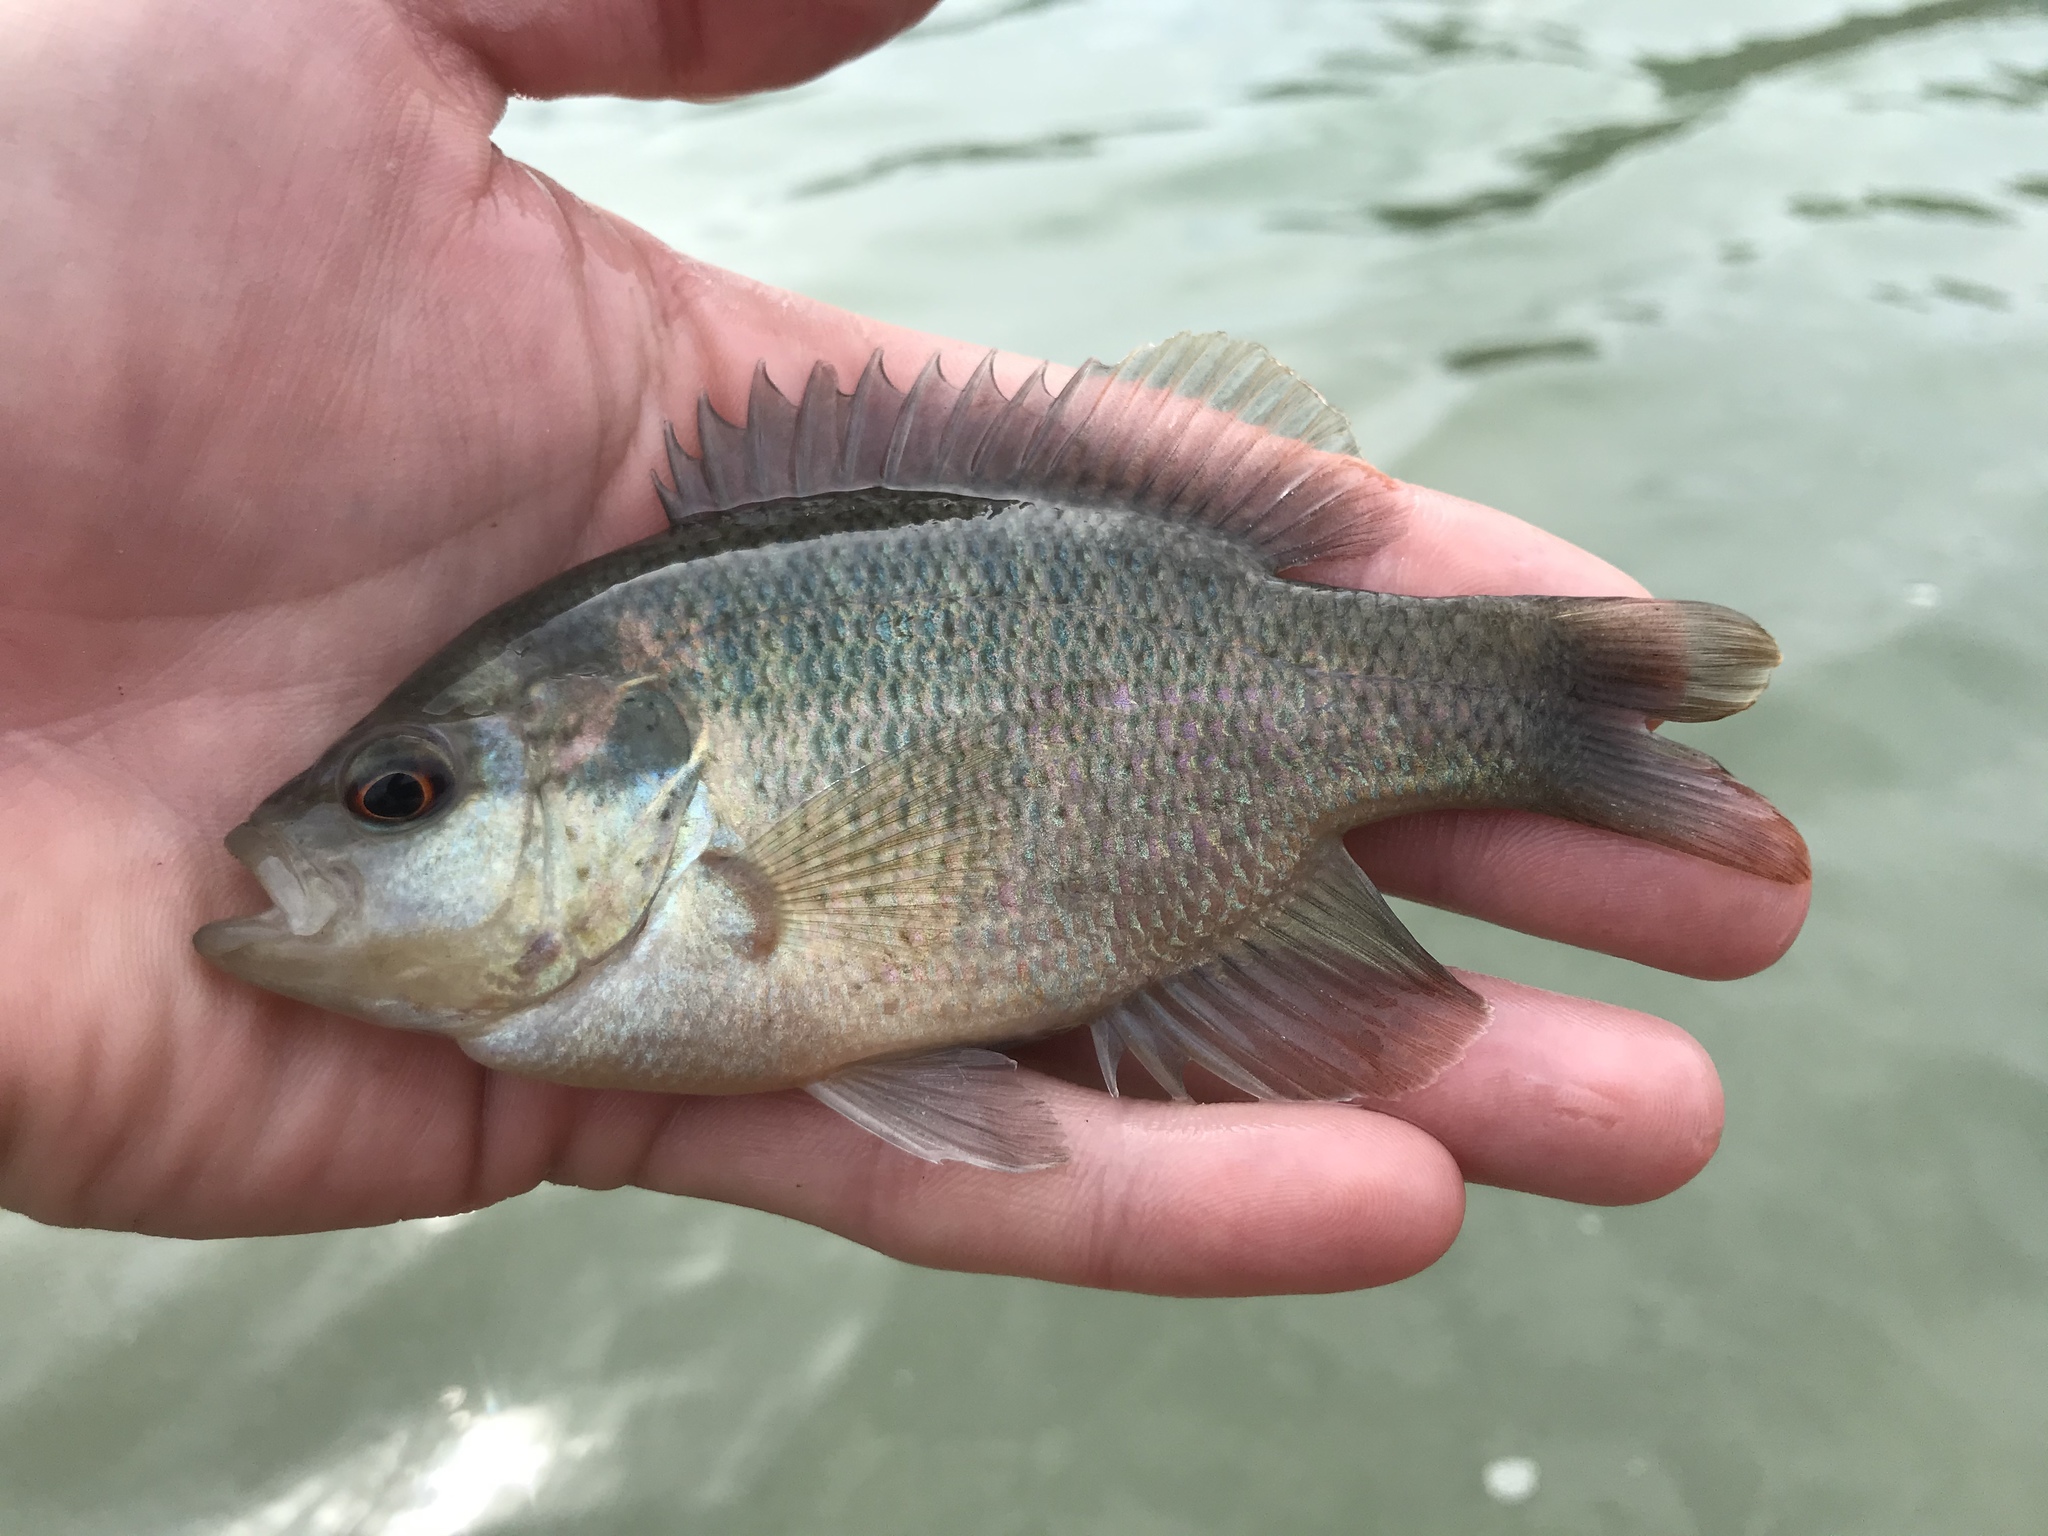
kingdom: Animalia
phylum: Chordata
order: Perciformes
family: Centrarchidae
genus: Lepomis
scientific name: Lepomis miniatus
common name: Redspotted sunfish
